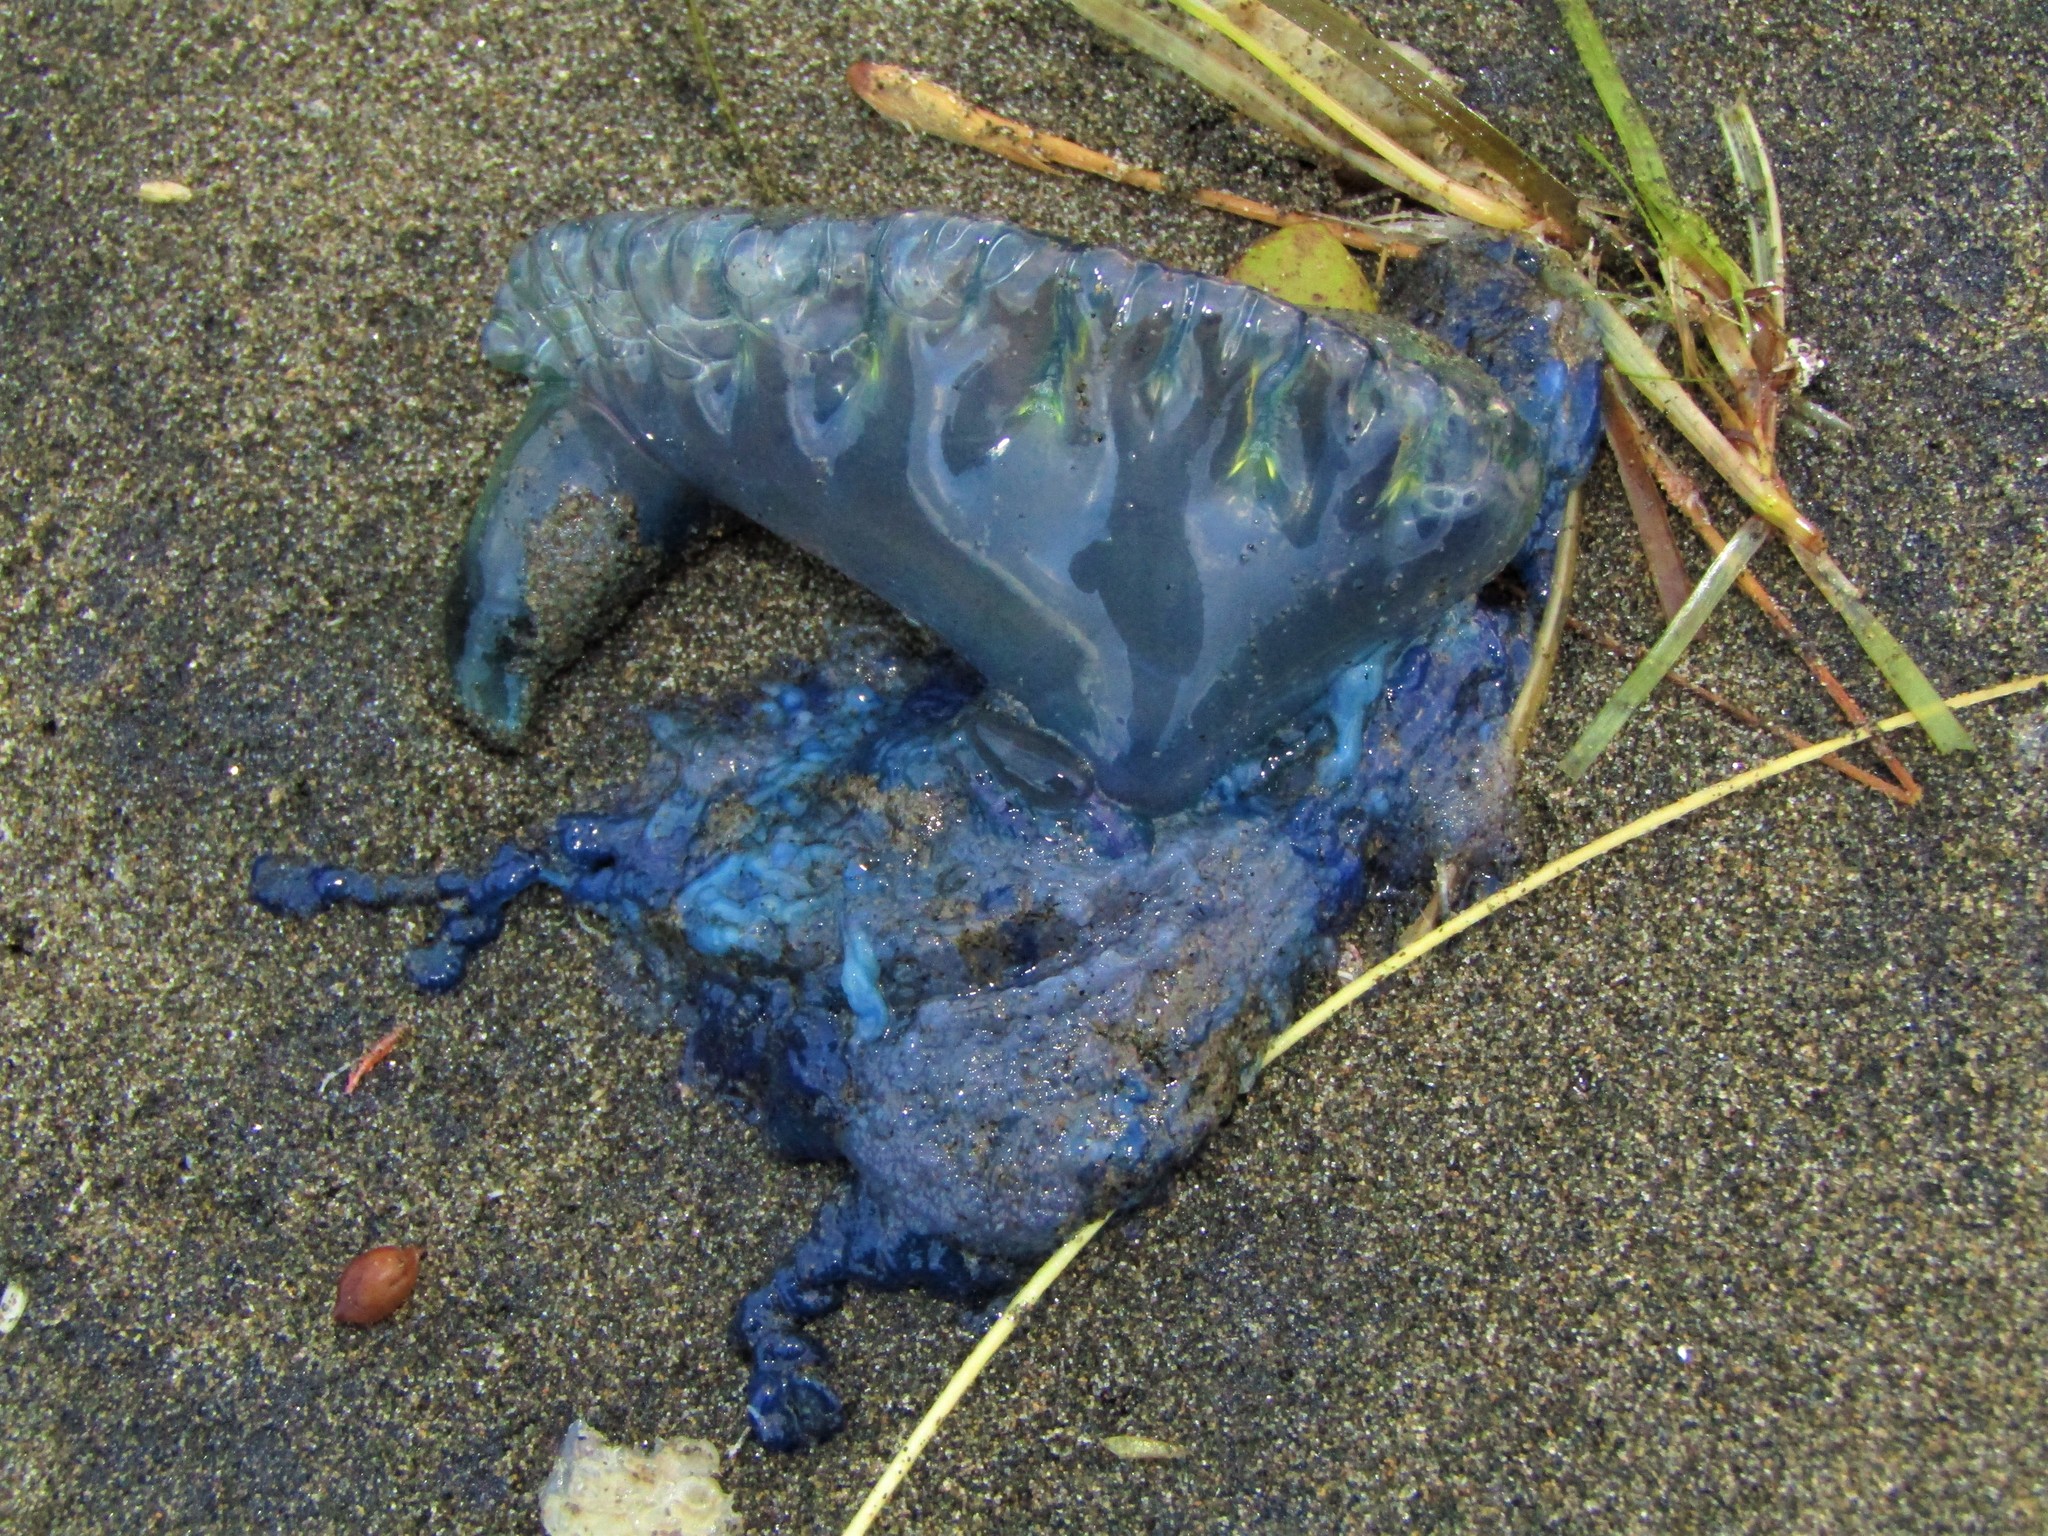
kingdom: Animalia
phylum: Cnidaria
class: Hydrozoa
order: Siphonophorae
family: Physaliidae
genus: Physalia
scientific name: Physalia physalis
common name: Portuguese man-of-war
